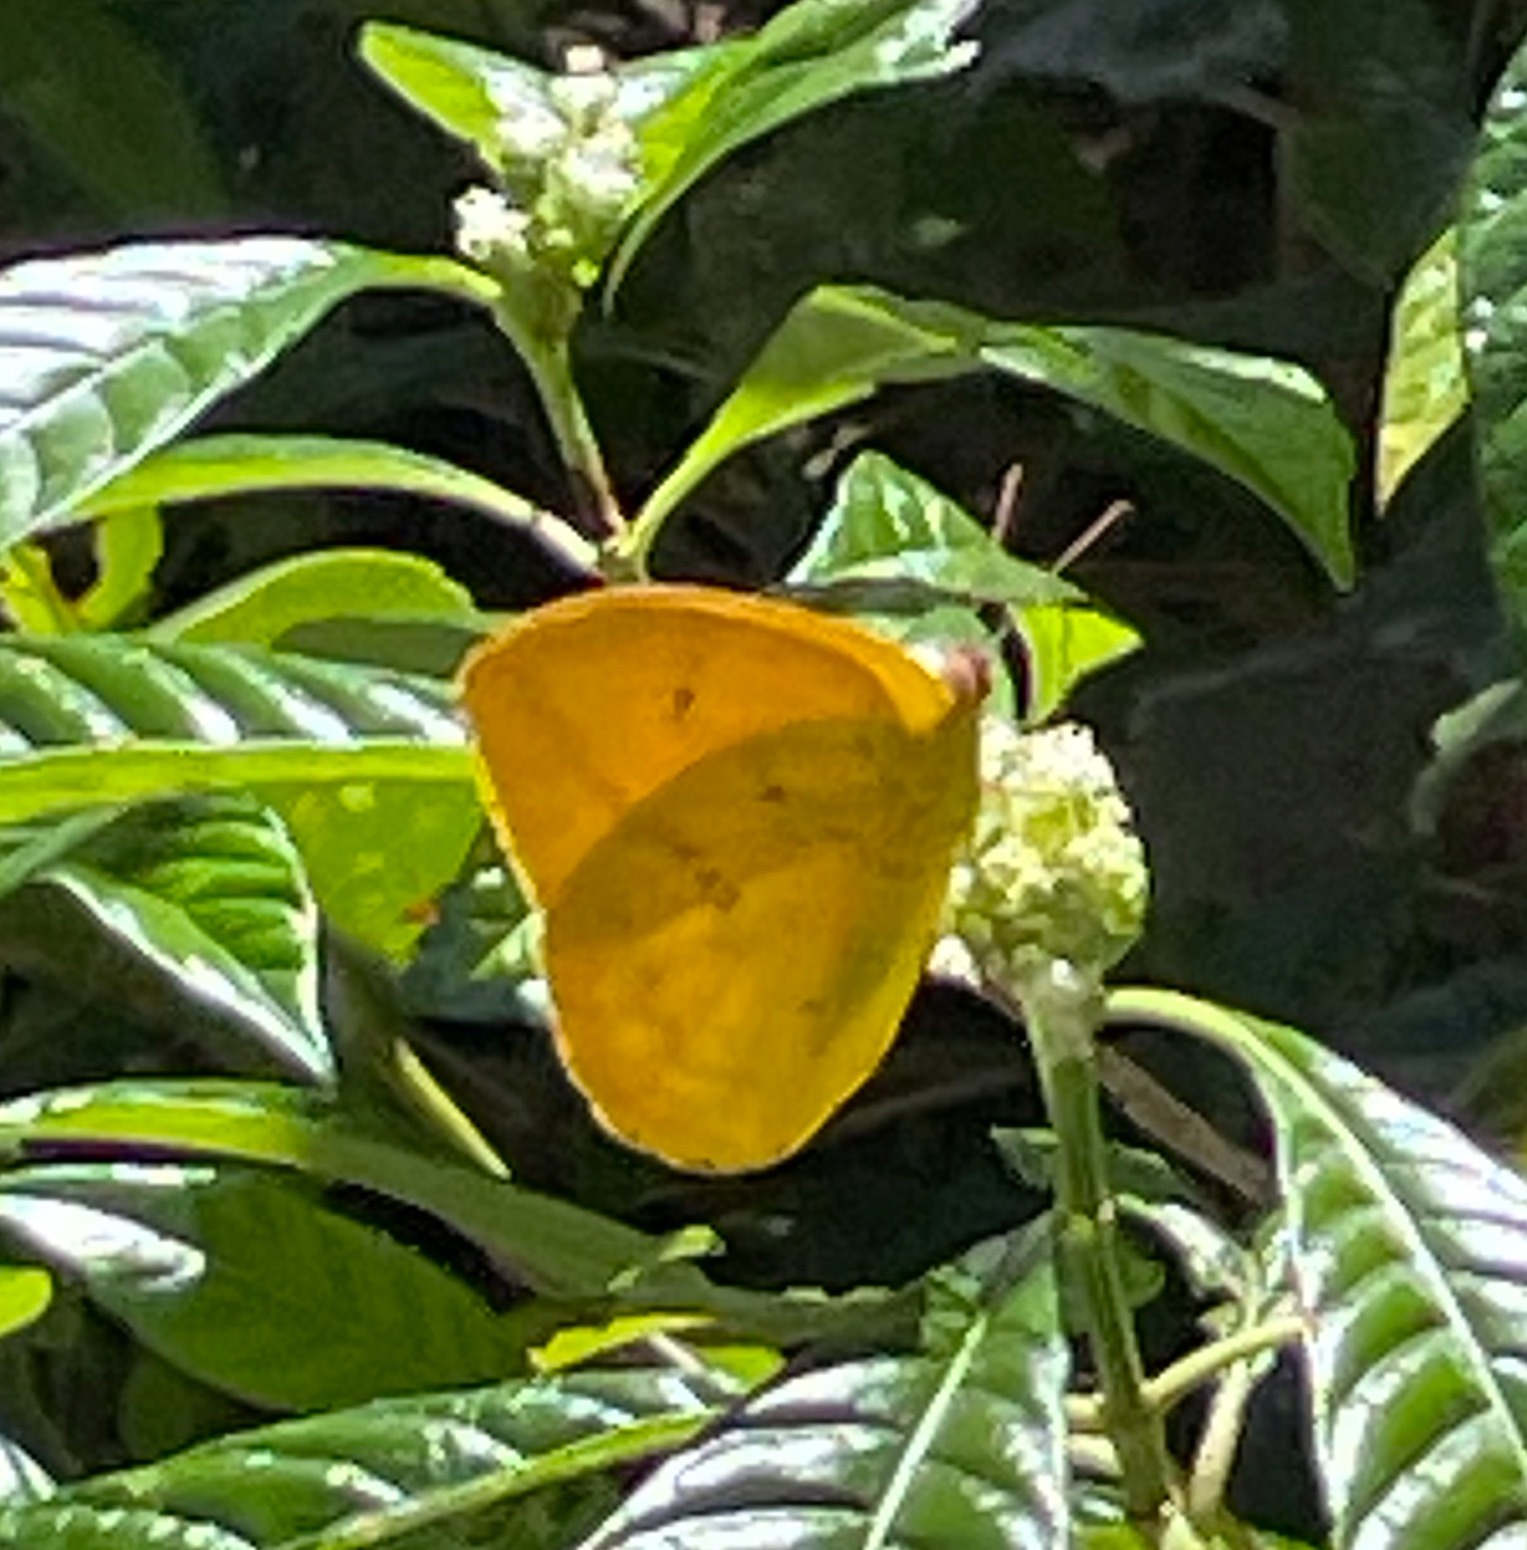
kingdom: Animalia
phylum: Arthropoda
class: Insecta
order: Lepidoptera
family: Pieridae
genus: Phoebis
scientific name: Phoebis agarithe
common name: Large orange sulphur
